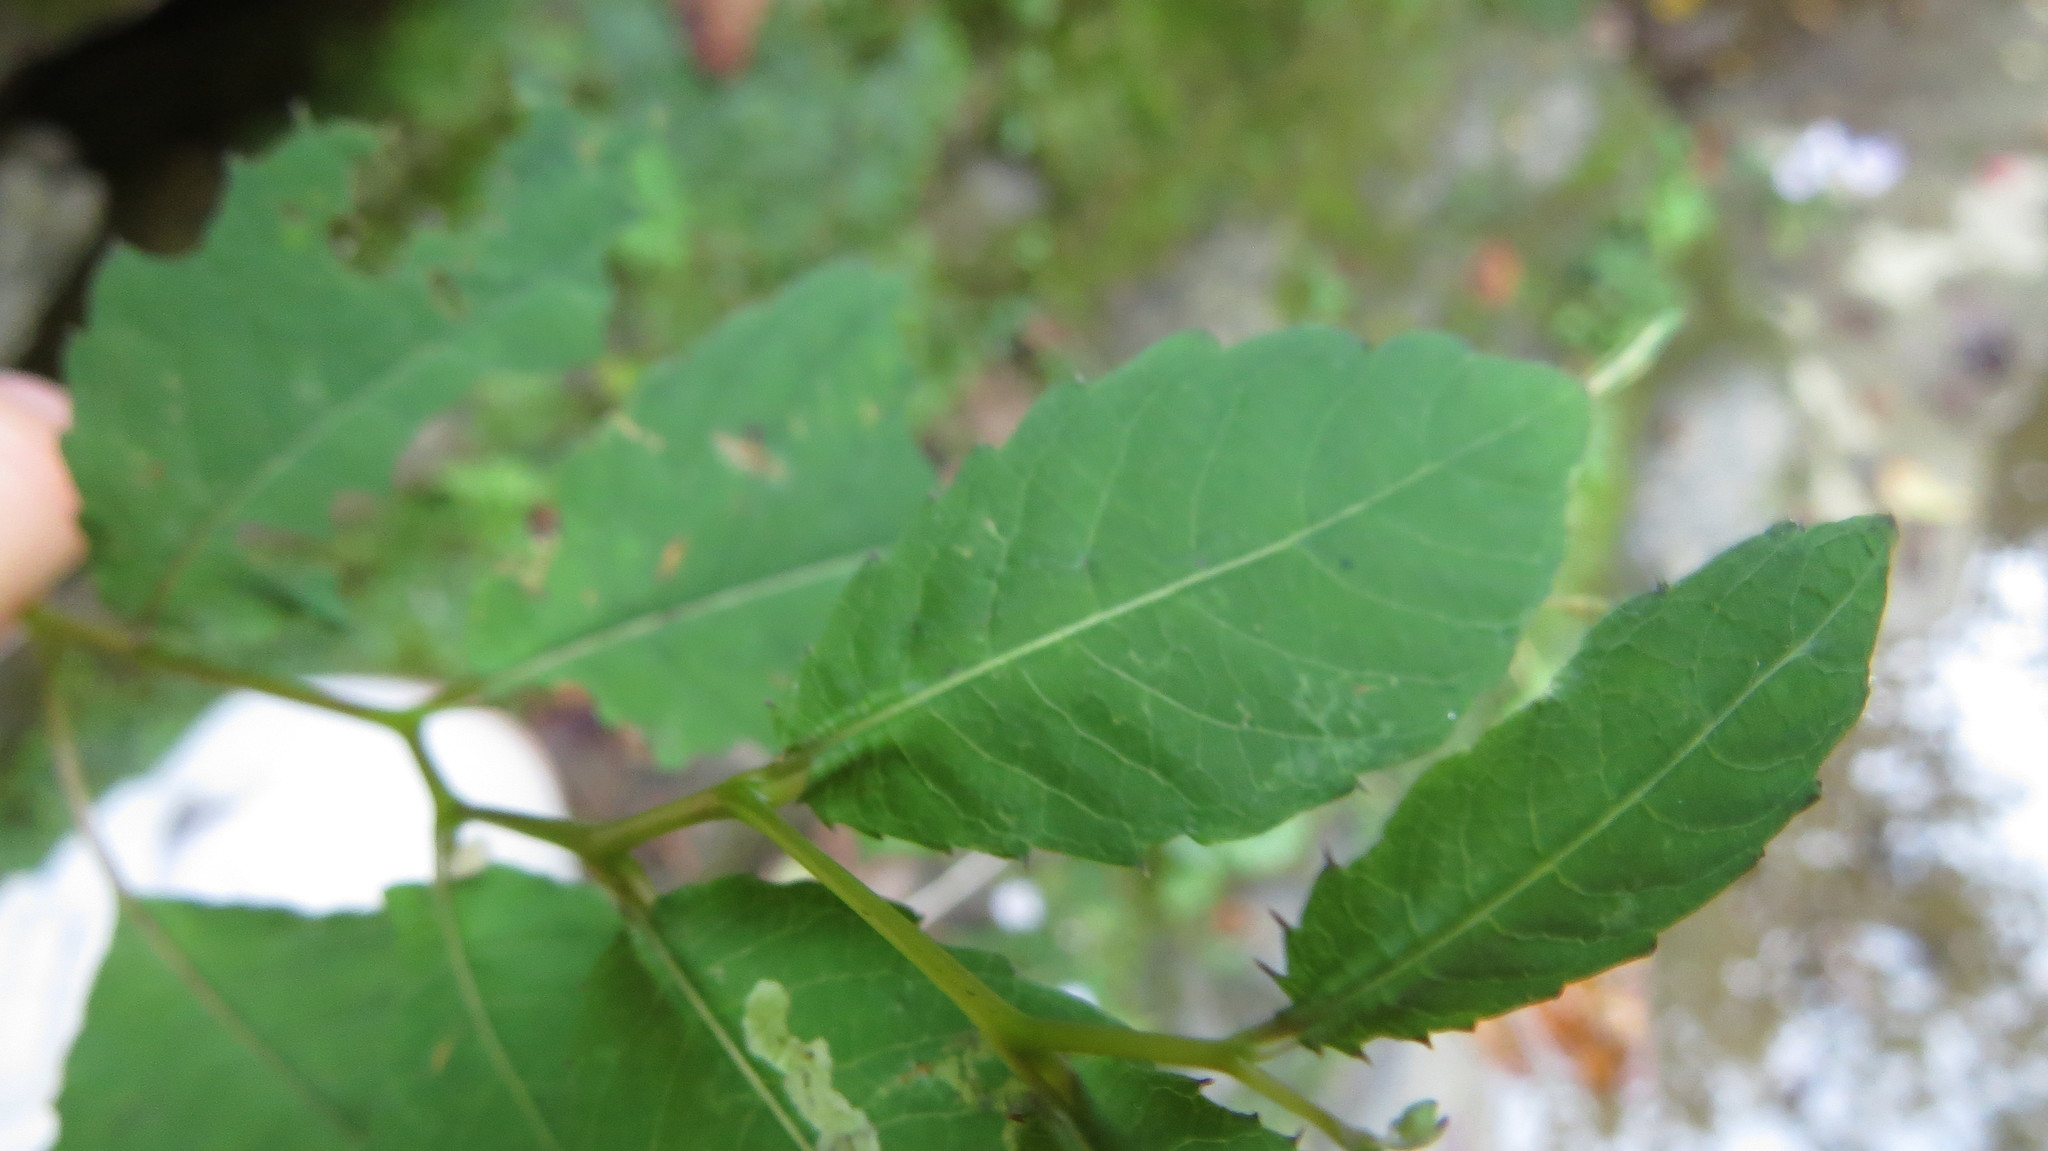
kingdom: Plantae
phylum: Tracheophyta
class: Magnoliopsida
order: Ericales
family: Balsaminaceae
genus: Impatiens
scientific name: Impatiens pallida
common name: Pale snapweed
